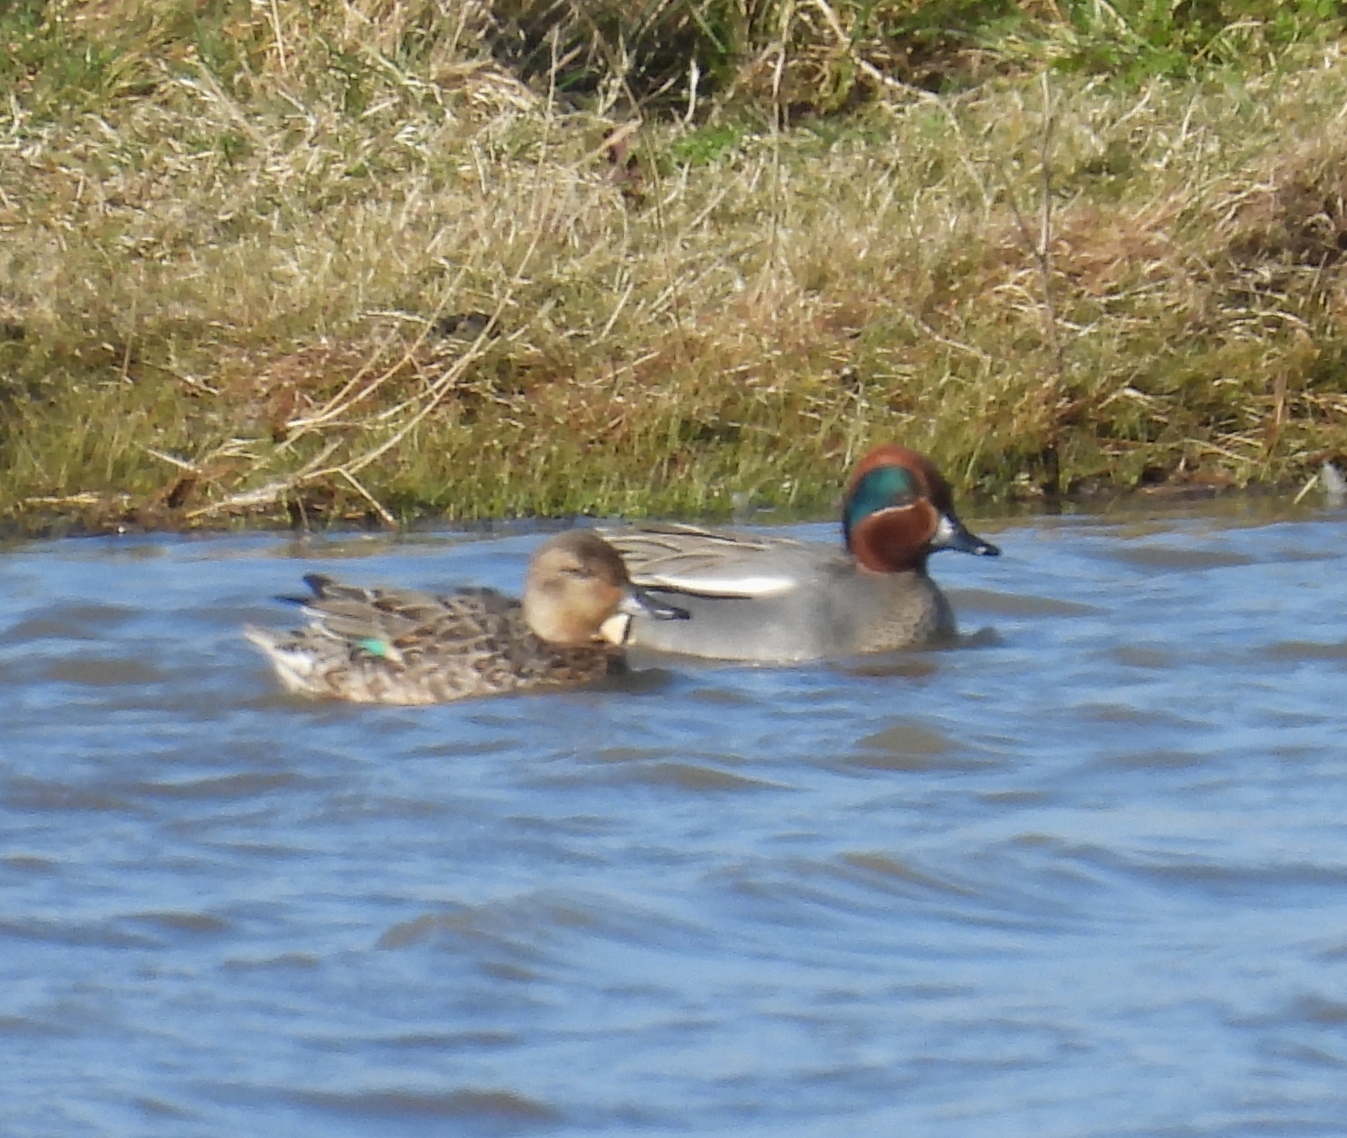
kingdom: Animalia
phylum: Chordata
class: Aves
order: Anseriformes
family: Anatidae
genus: Anas
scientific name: Anas crecca
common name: Eurasian teal
